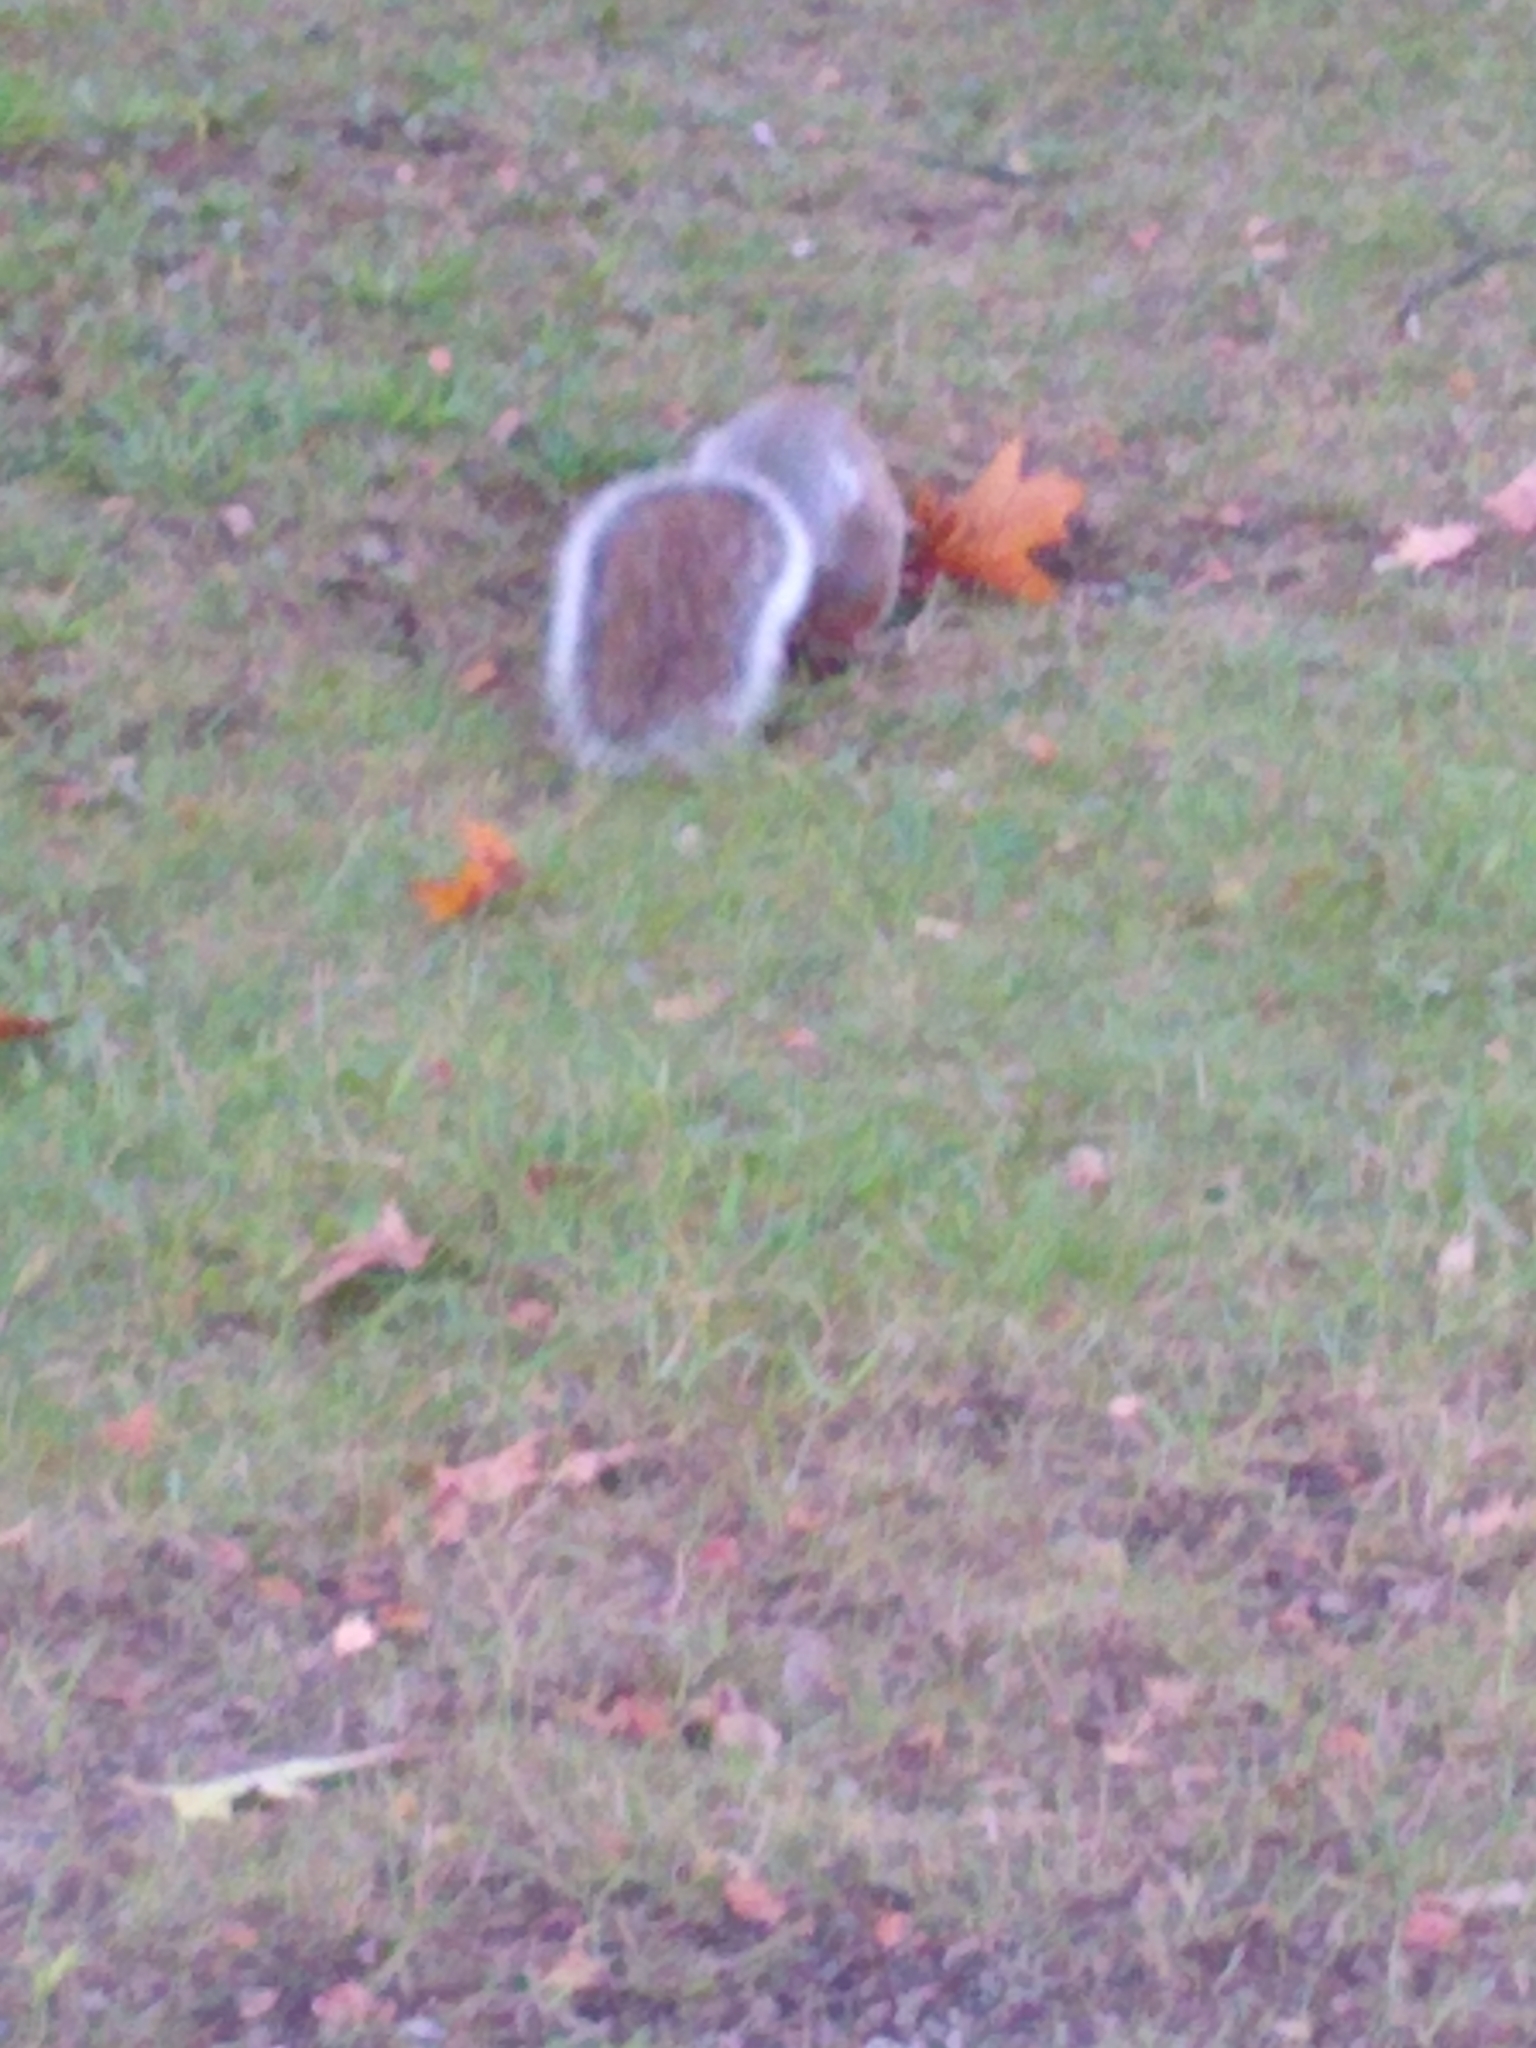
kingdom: Animalia
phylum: Chordata
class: Mammalia
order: Rodentia
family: Sciuridae
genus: Sciurus
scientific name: Sciurus carolinensis
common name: Eastern gray squirrel
